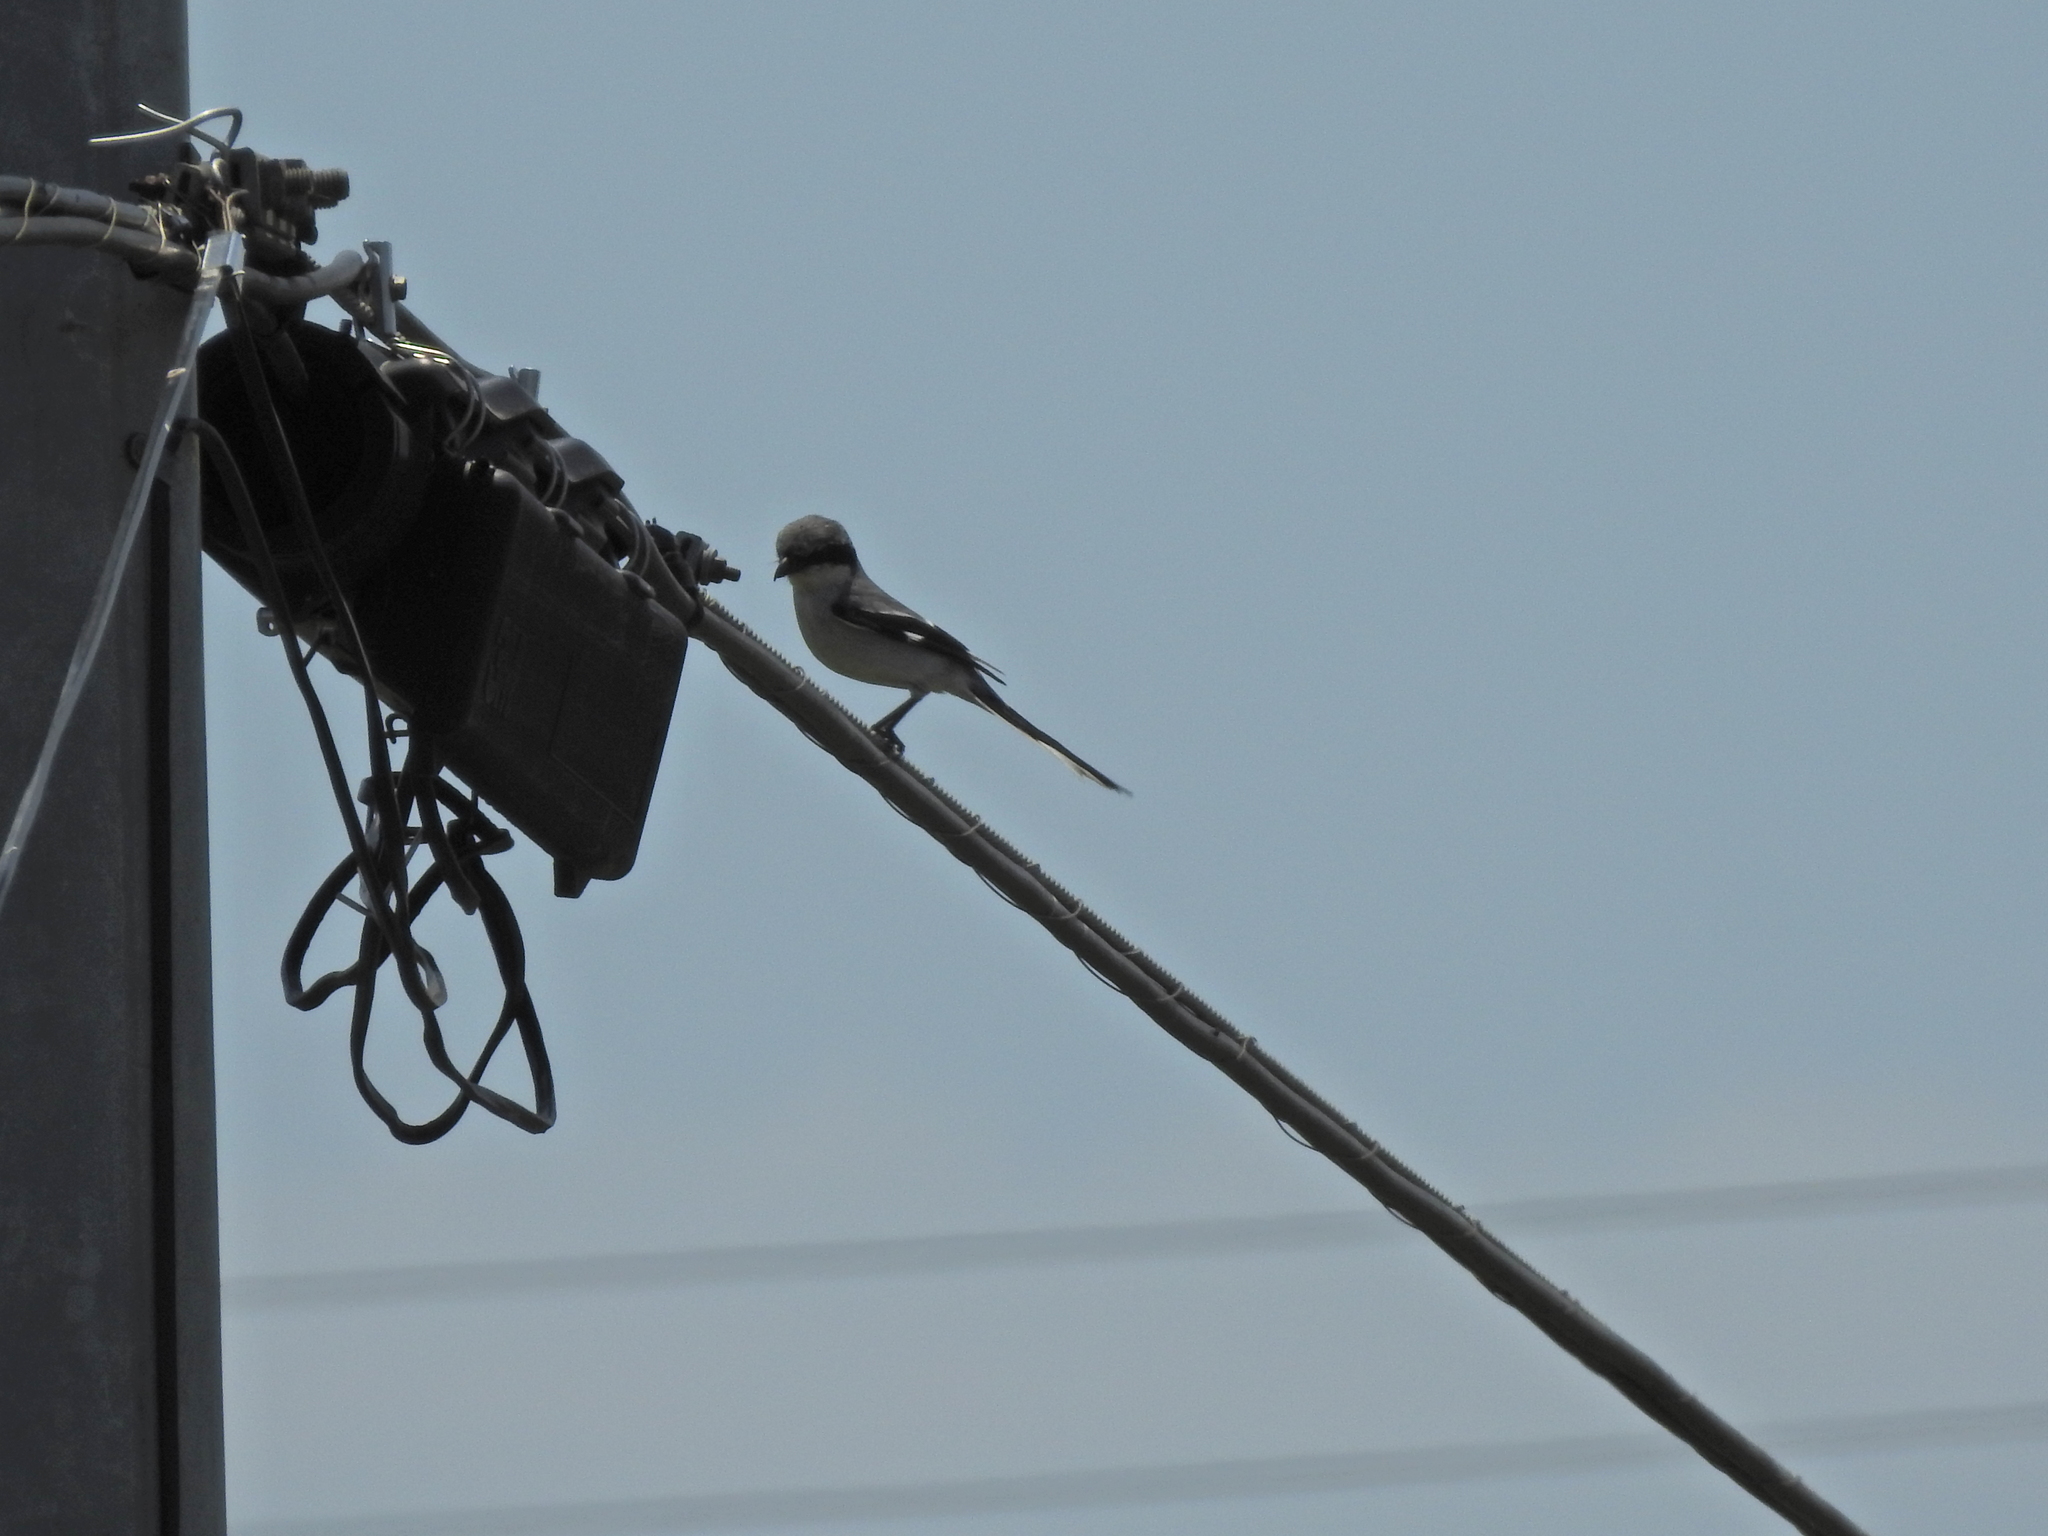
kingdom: Animalia
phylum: Chordata
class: Aves
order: Passeriformes
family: Laniidae
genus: Lanius
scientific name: Lanius ludovicianus
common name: Loggerhead shrike
